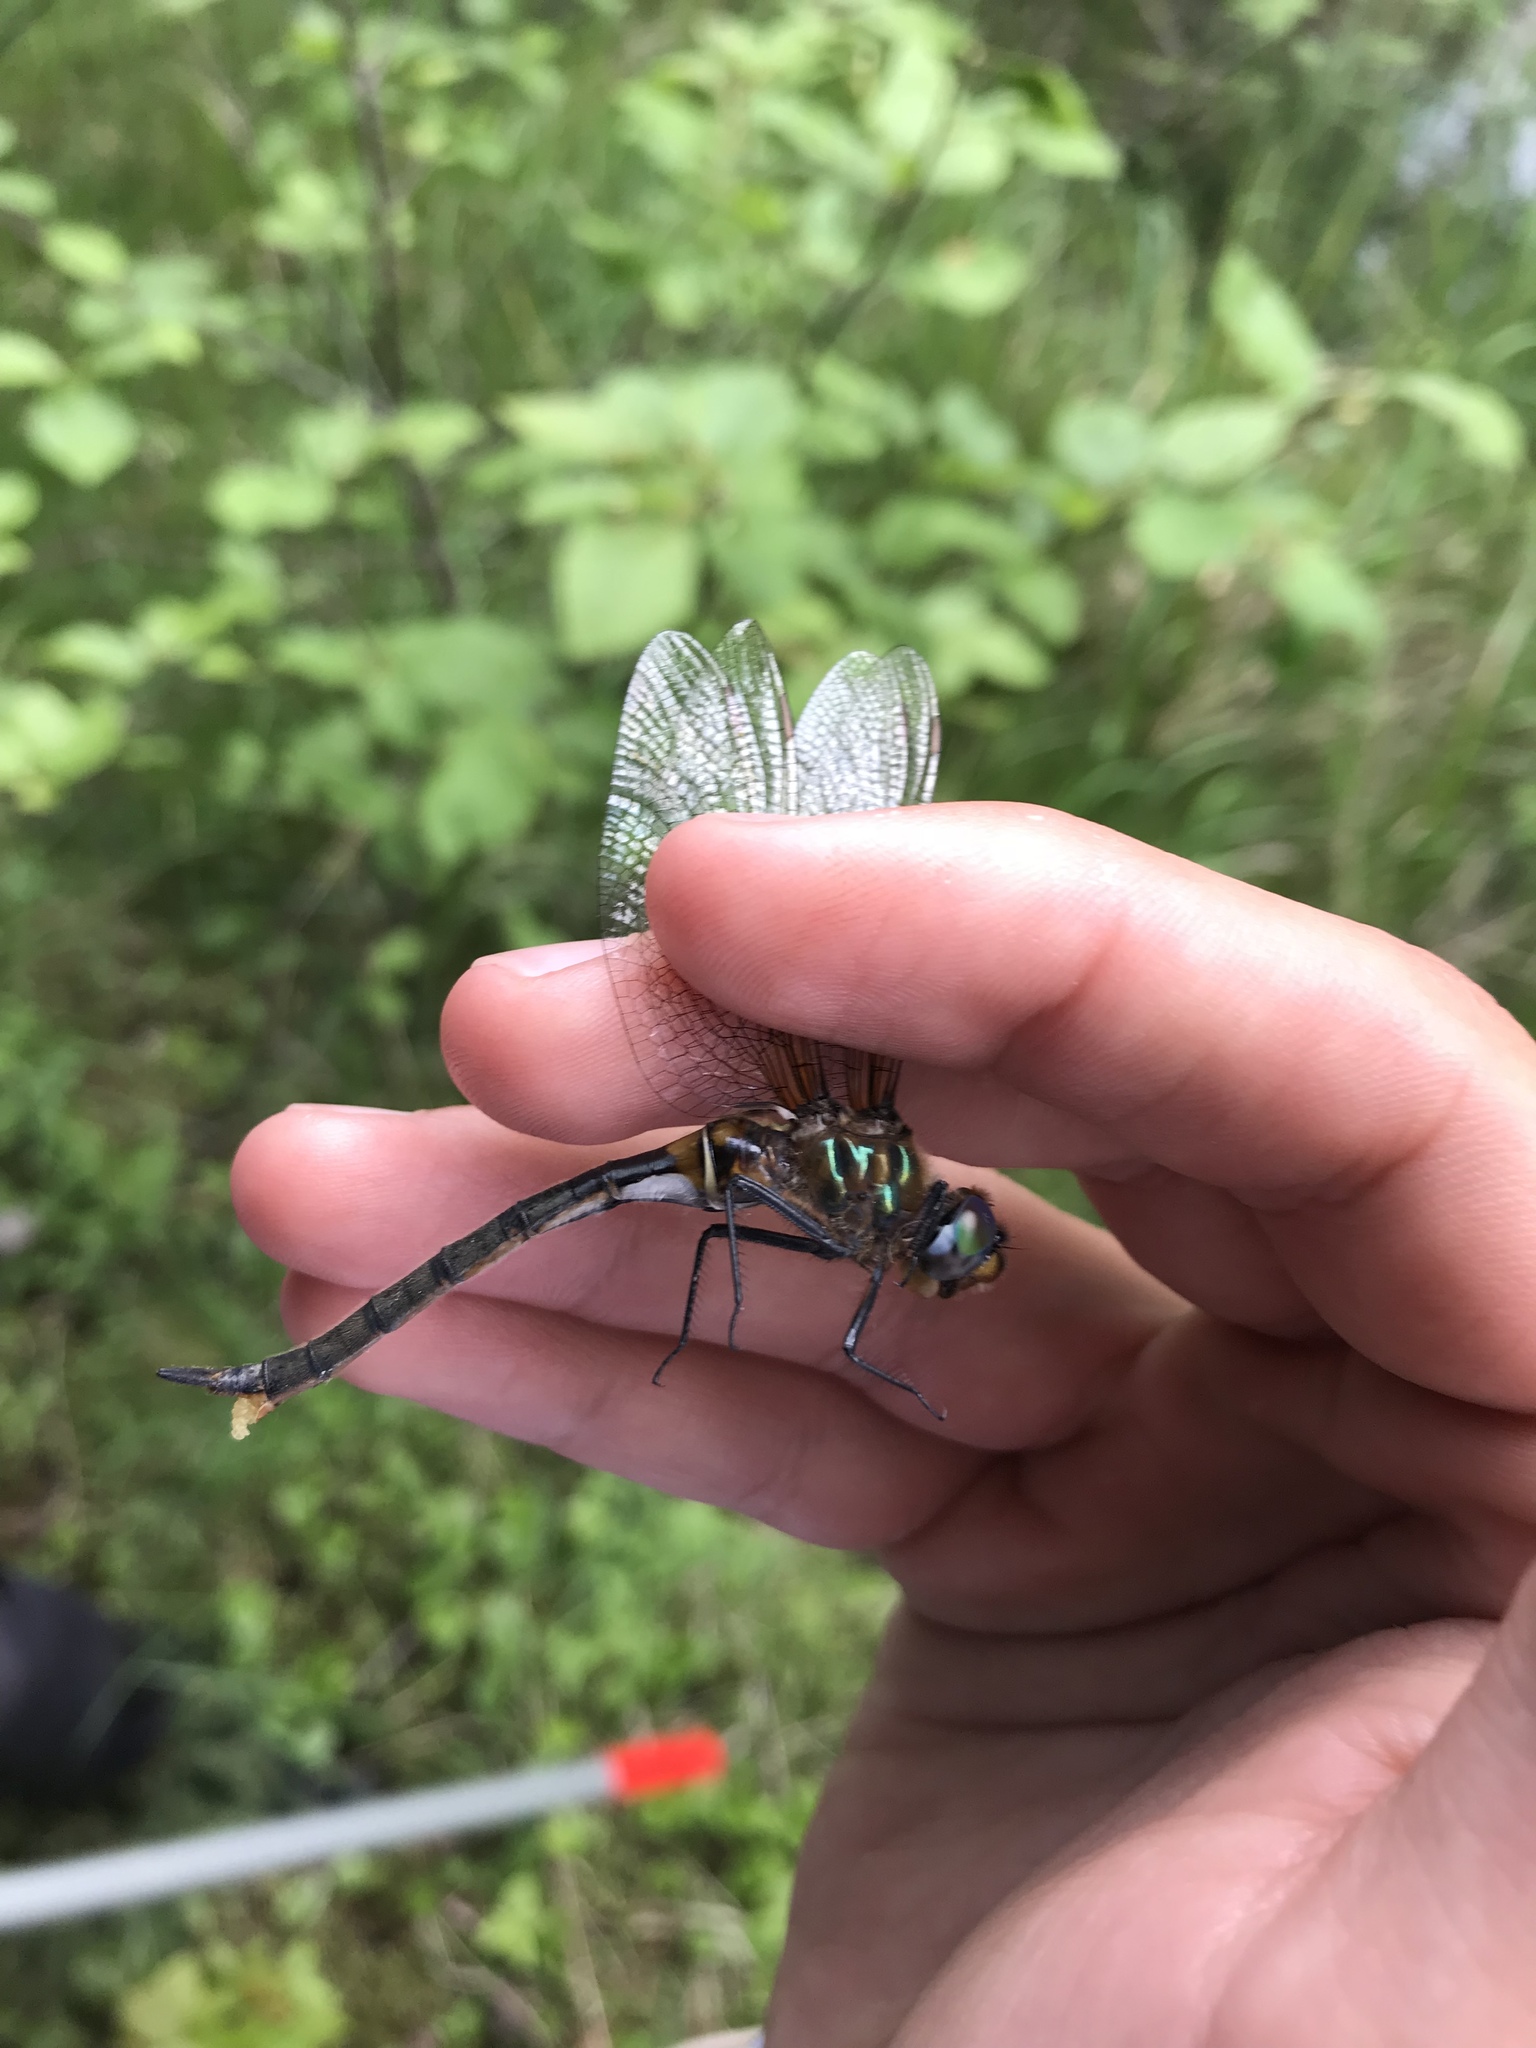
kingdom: Animalia
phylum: Arthropoda
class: Insecta
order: Odonata
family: Corduliidae
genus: Somatochlora
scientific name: Somatochlora kennedyi
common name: Kennedy's emerald
